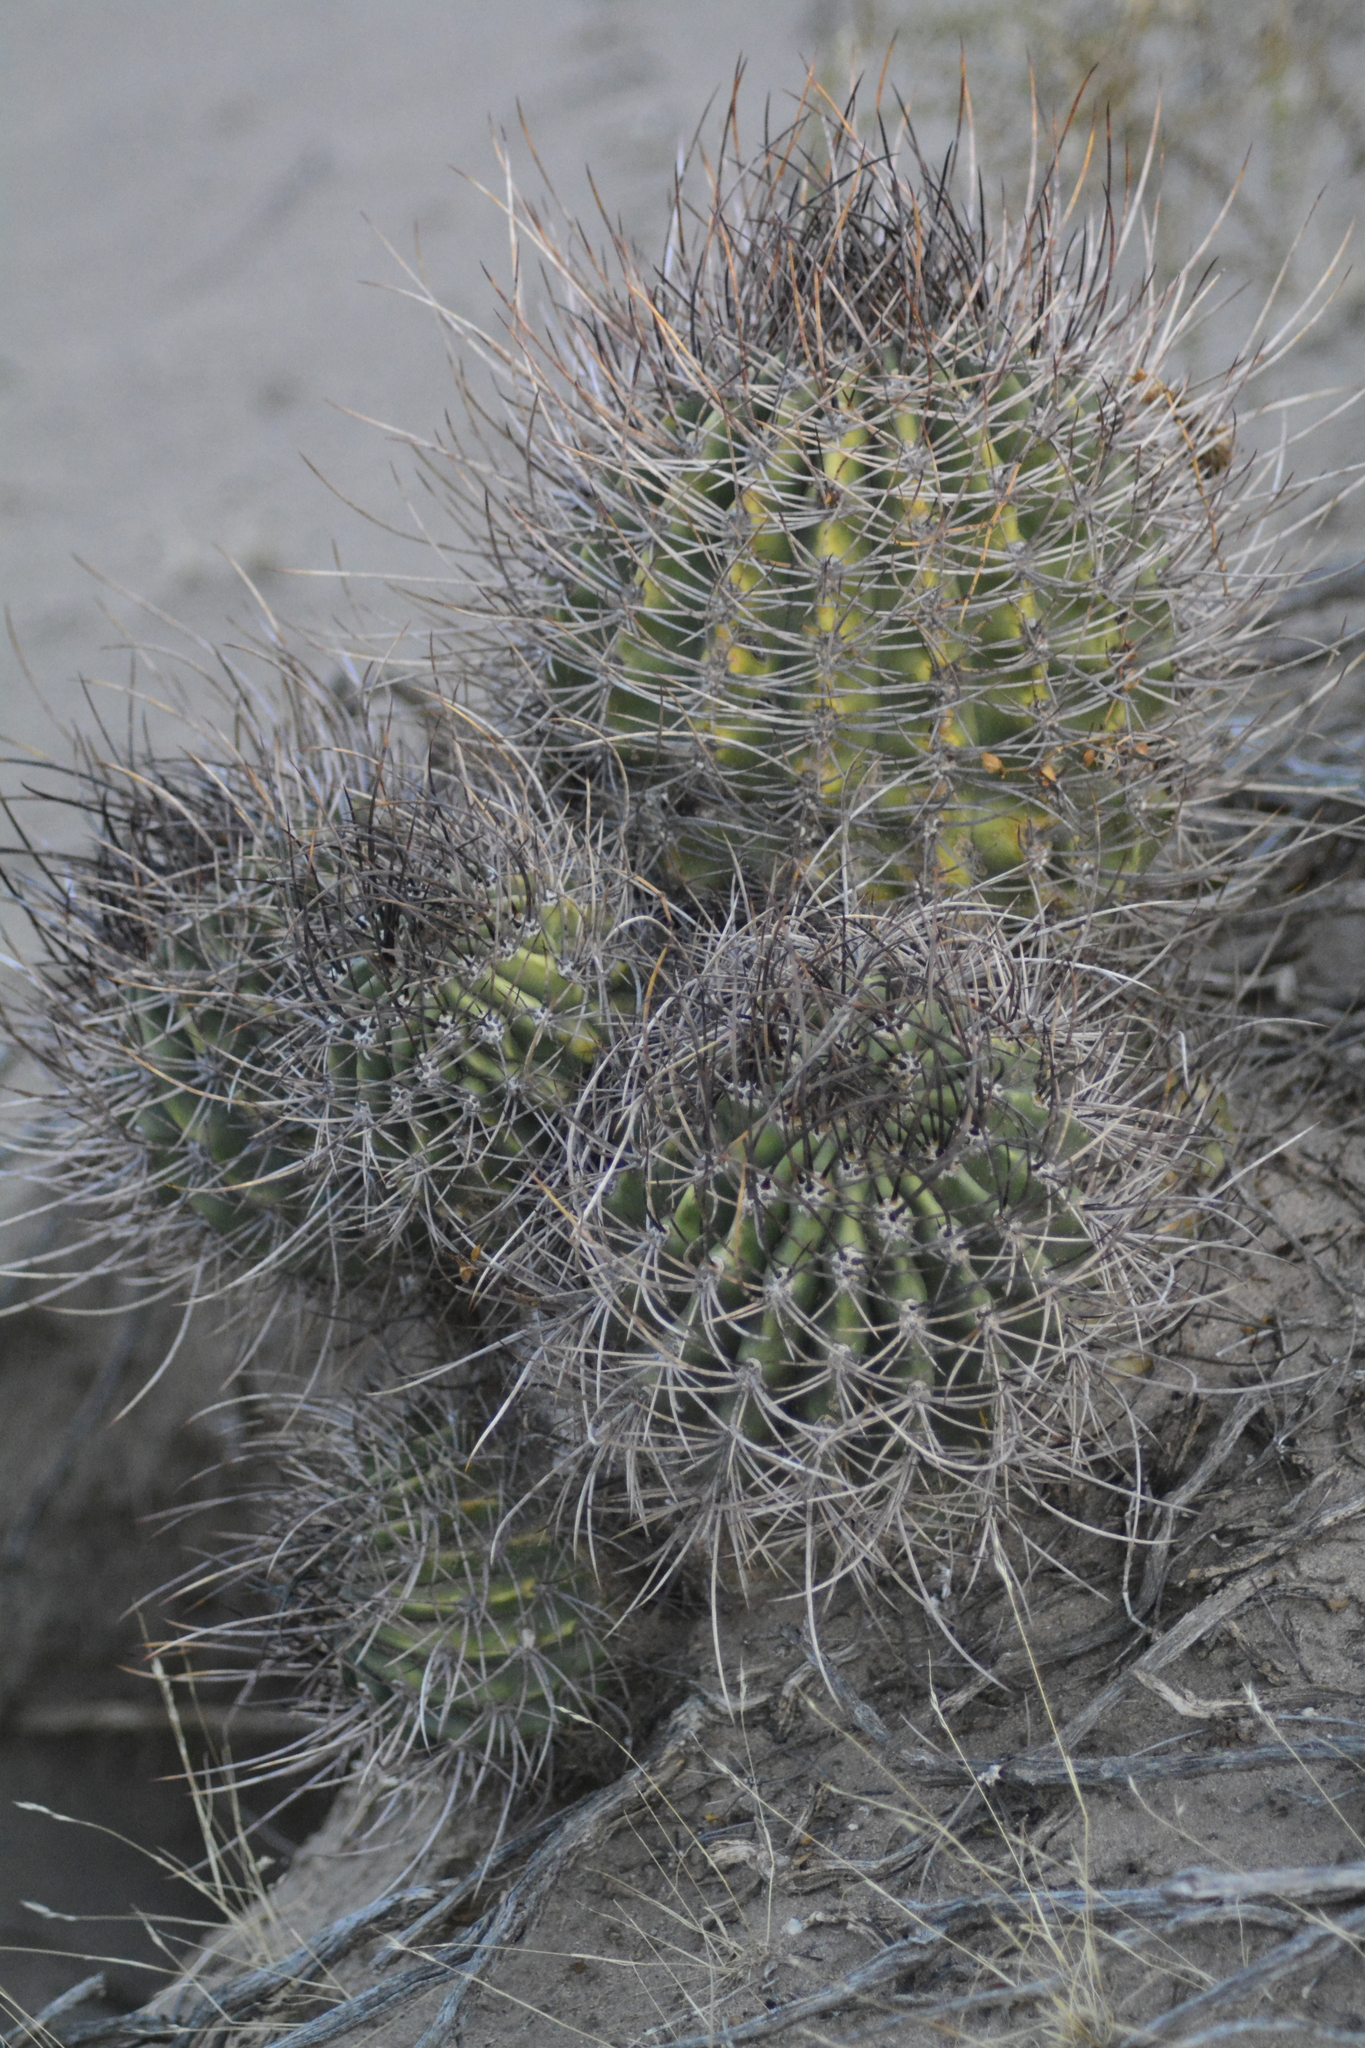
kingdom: Plantae
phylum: Tracheophyta
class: Magnoliopsida
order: Caryophyllales
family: Cactaceae
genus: Acanthocalycium
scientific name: Acanthocalycium leucanthum
